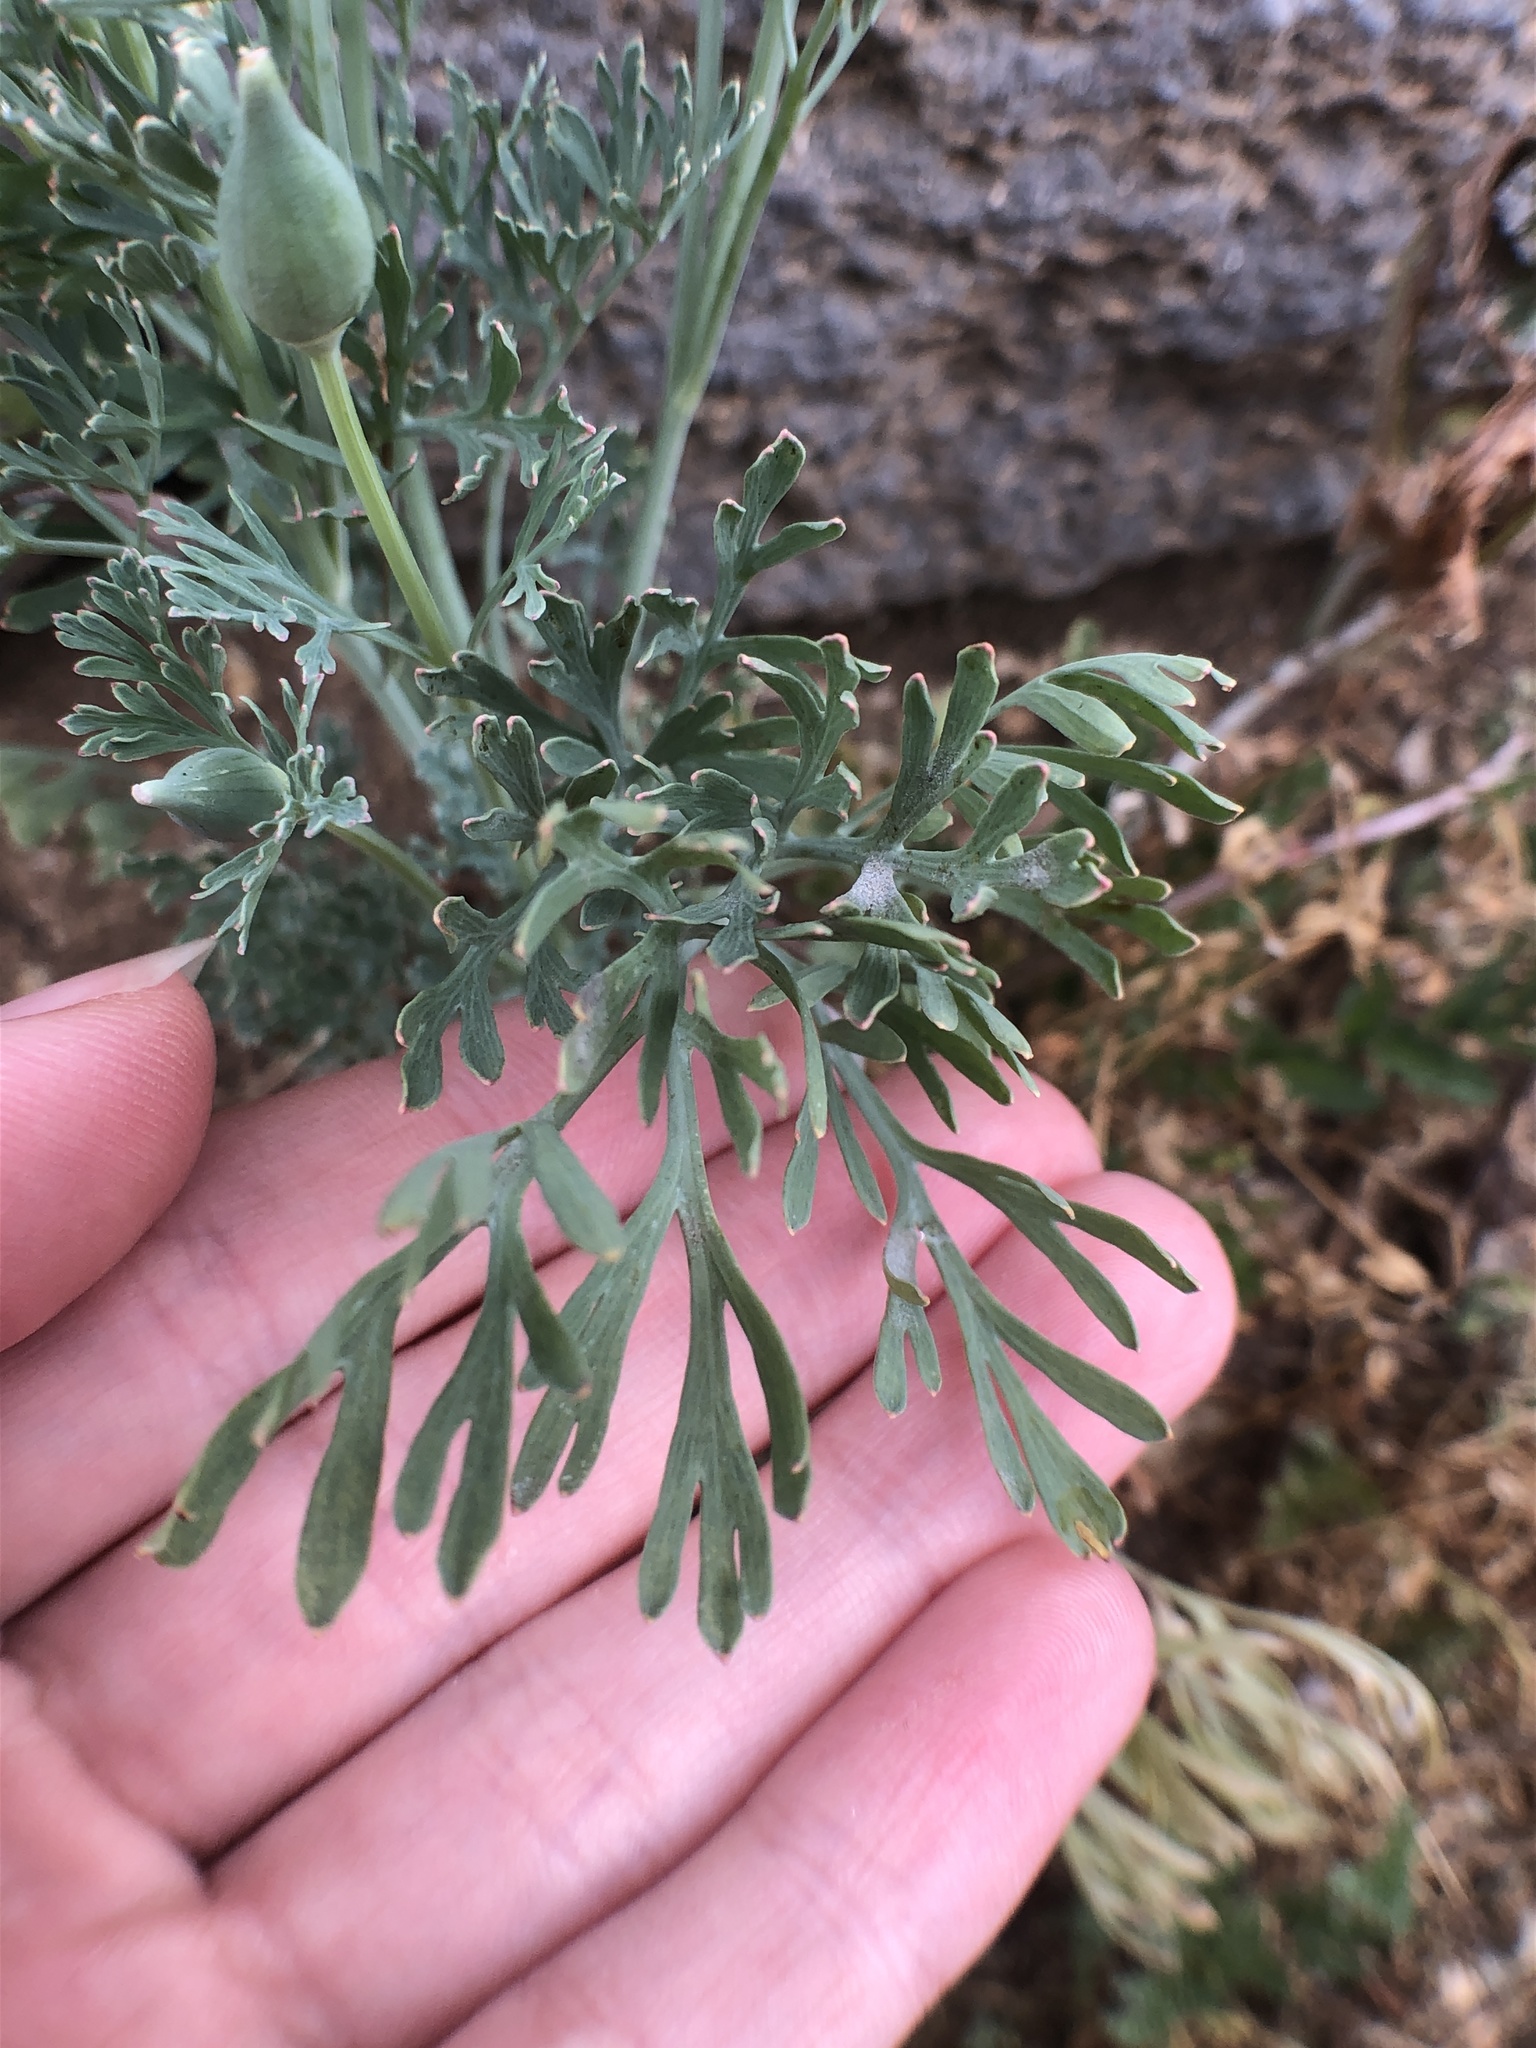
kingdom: Plantae
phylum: Tracheophyta
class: Magnoliopsida
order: Ranunculales
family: Papaveraceae
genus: Eschscholzia
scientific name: Eschscholzia californica
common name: California poppy
